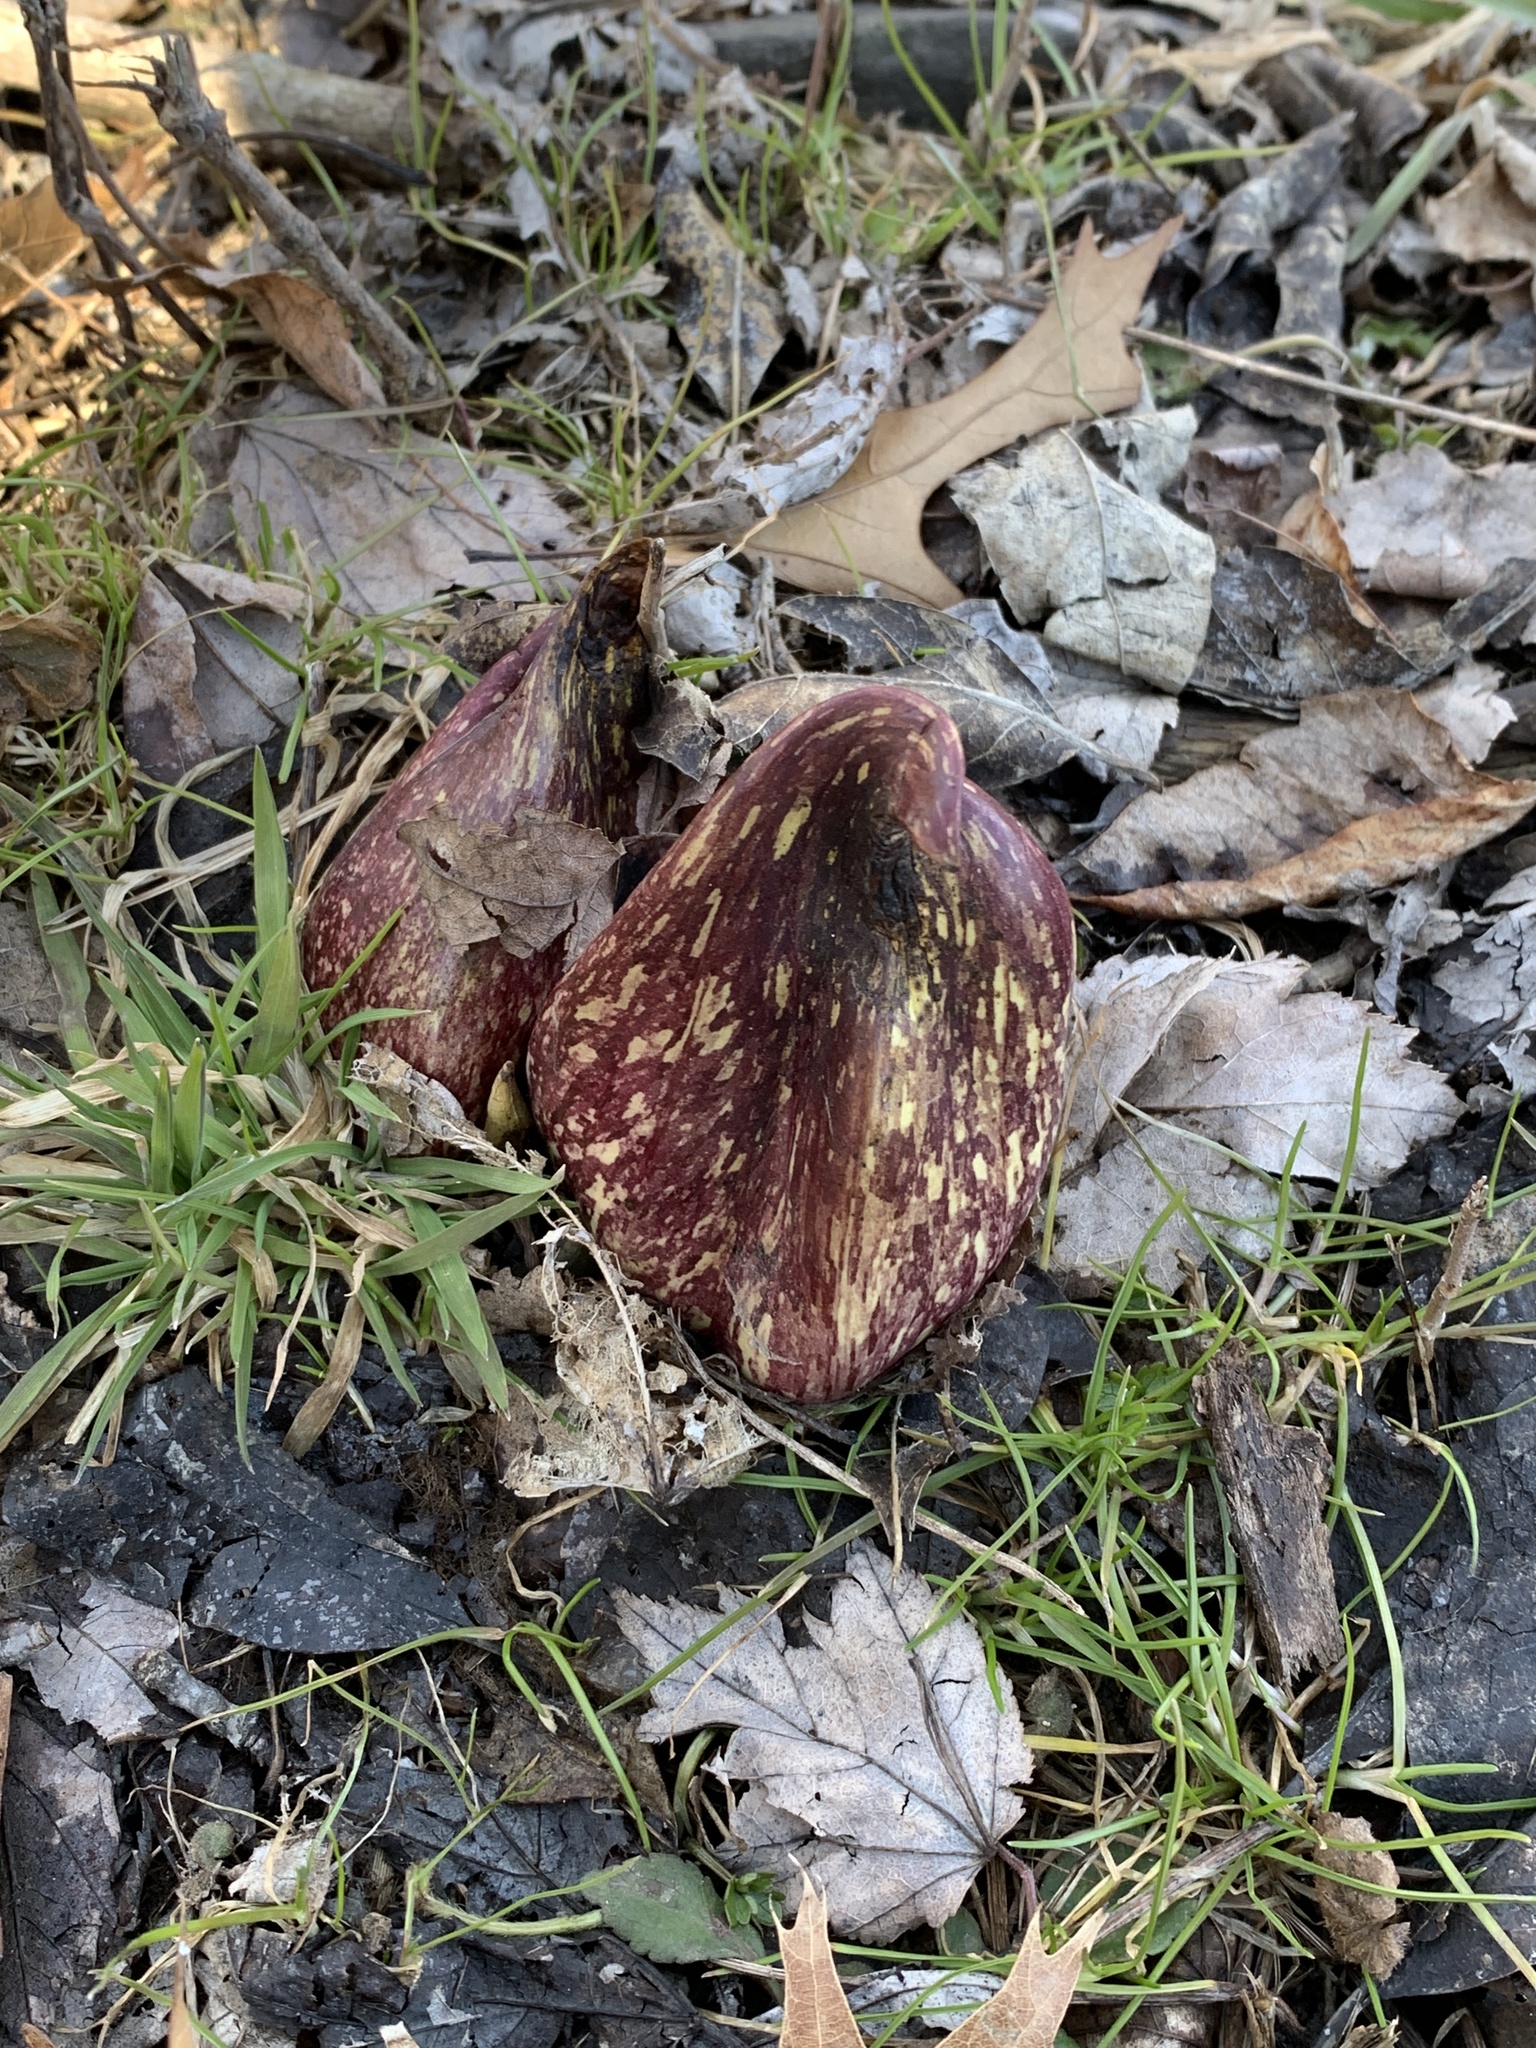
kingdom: Plantae
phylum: Tracheophyta
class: Liliopsida
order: Alismatales
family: Araceae
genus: Symplocarpus
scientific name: Symplocarpus foetidus
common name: Eastern skunk cabbage
